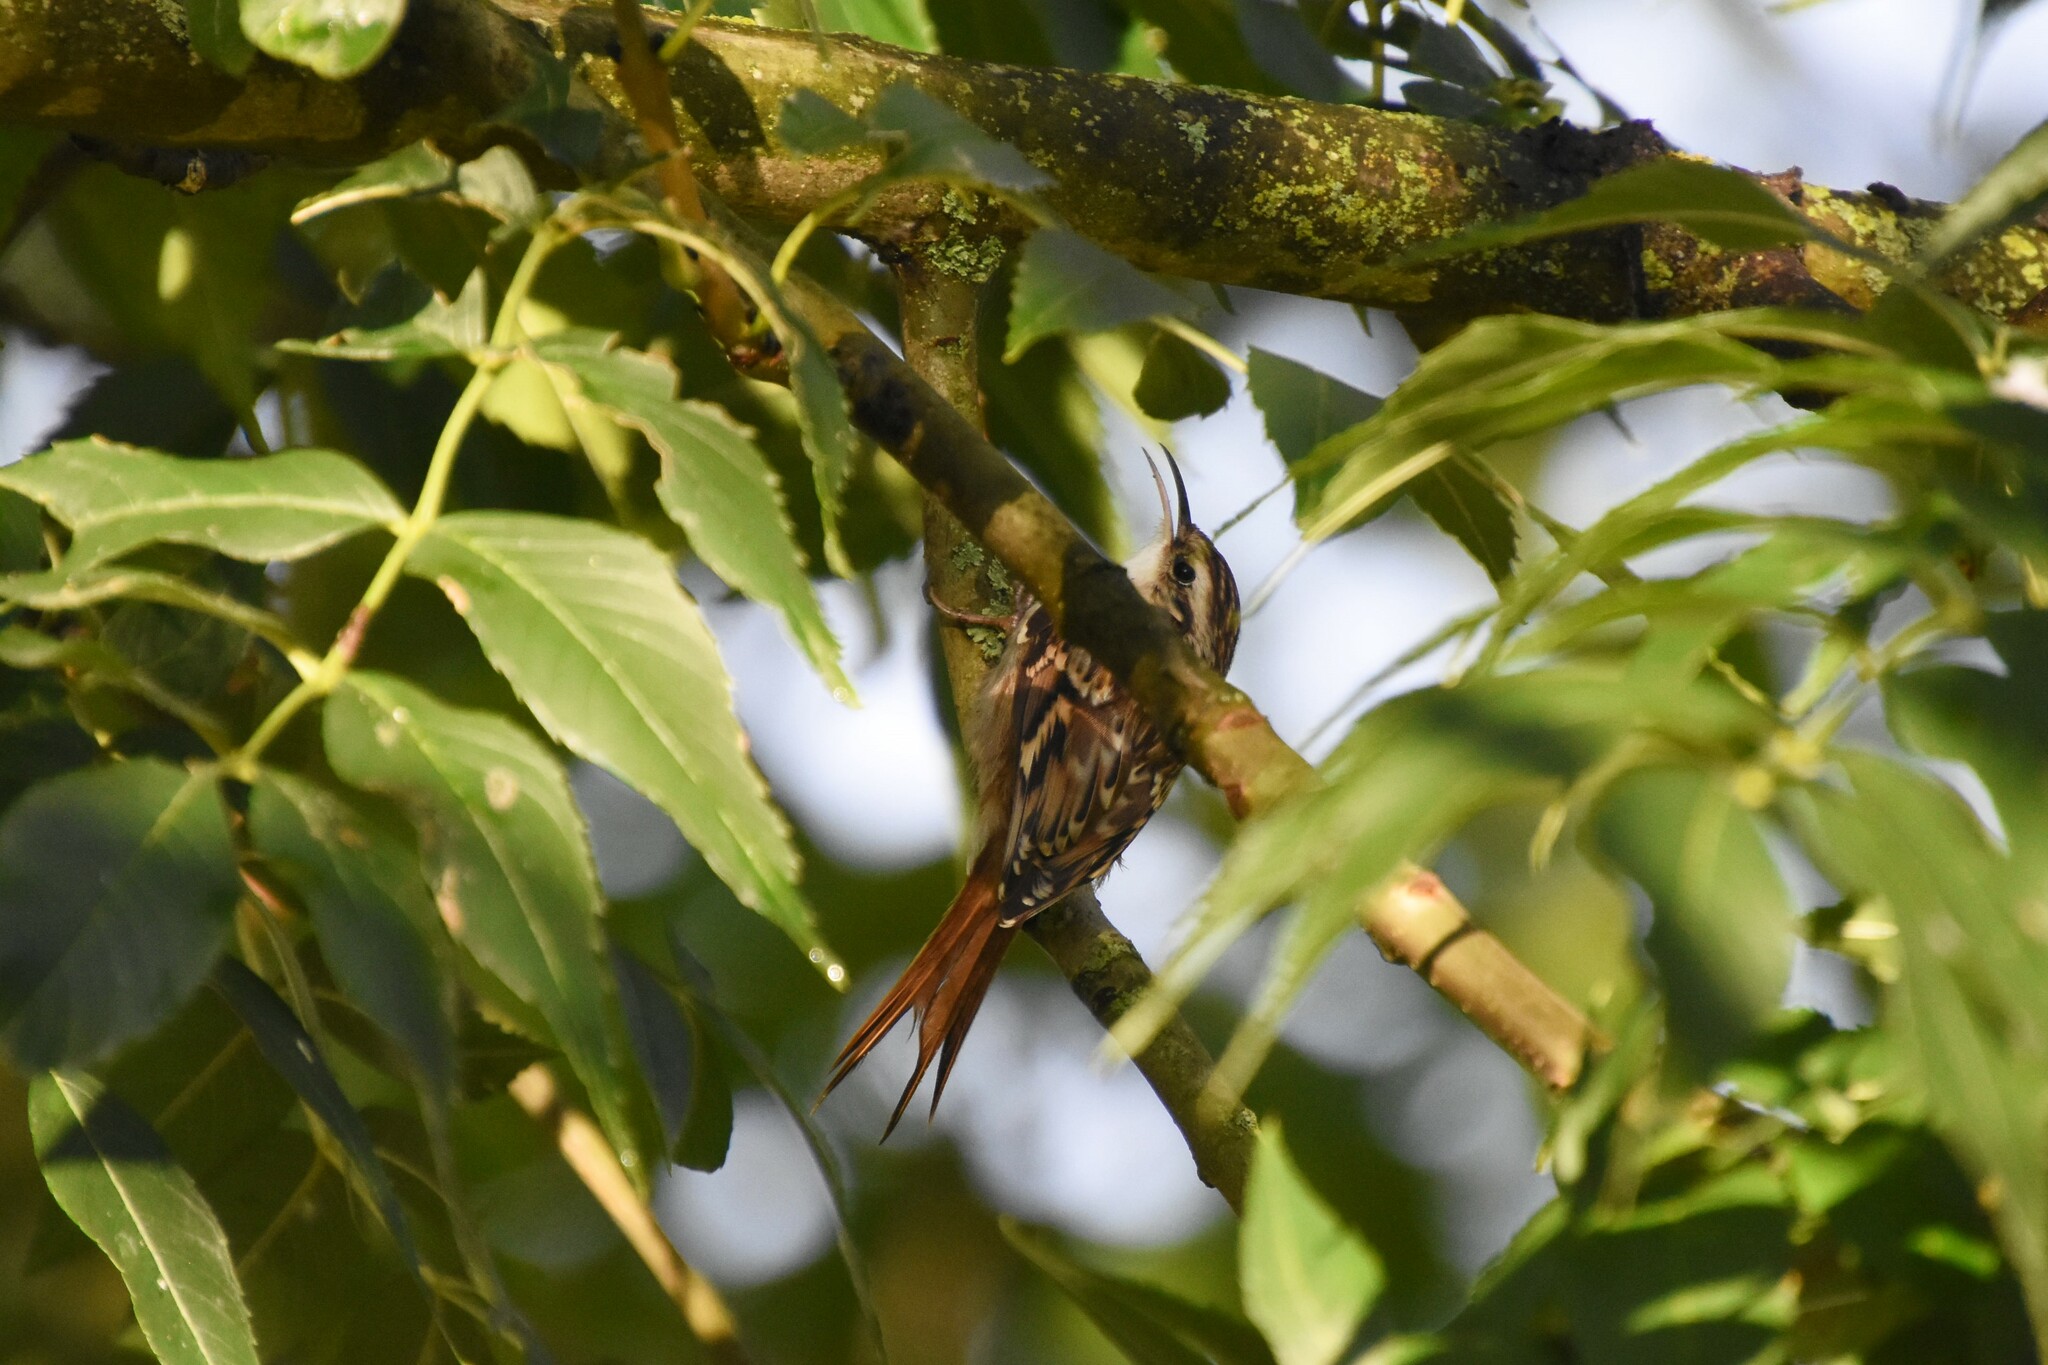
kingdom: Animalia
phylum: Chordata
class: Aves
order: Passeriformes
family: Certhiidae
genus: Certhia
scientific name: Certhia brachydactyla
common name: Short-toed treecreeper
